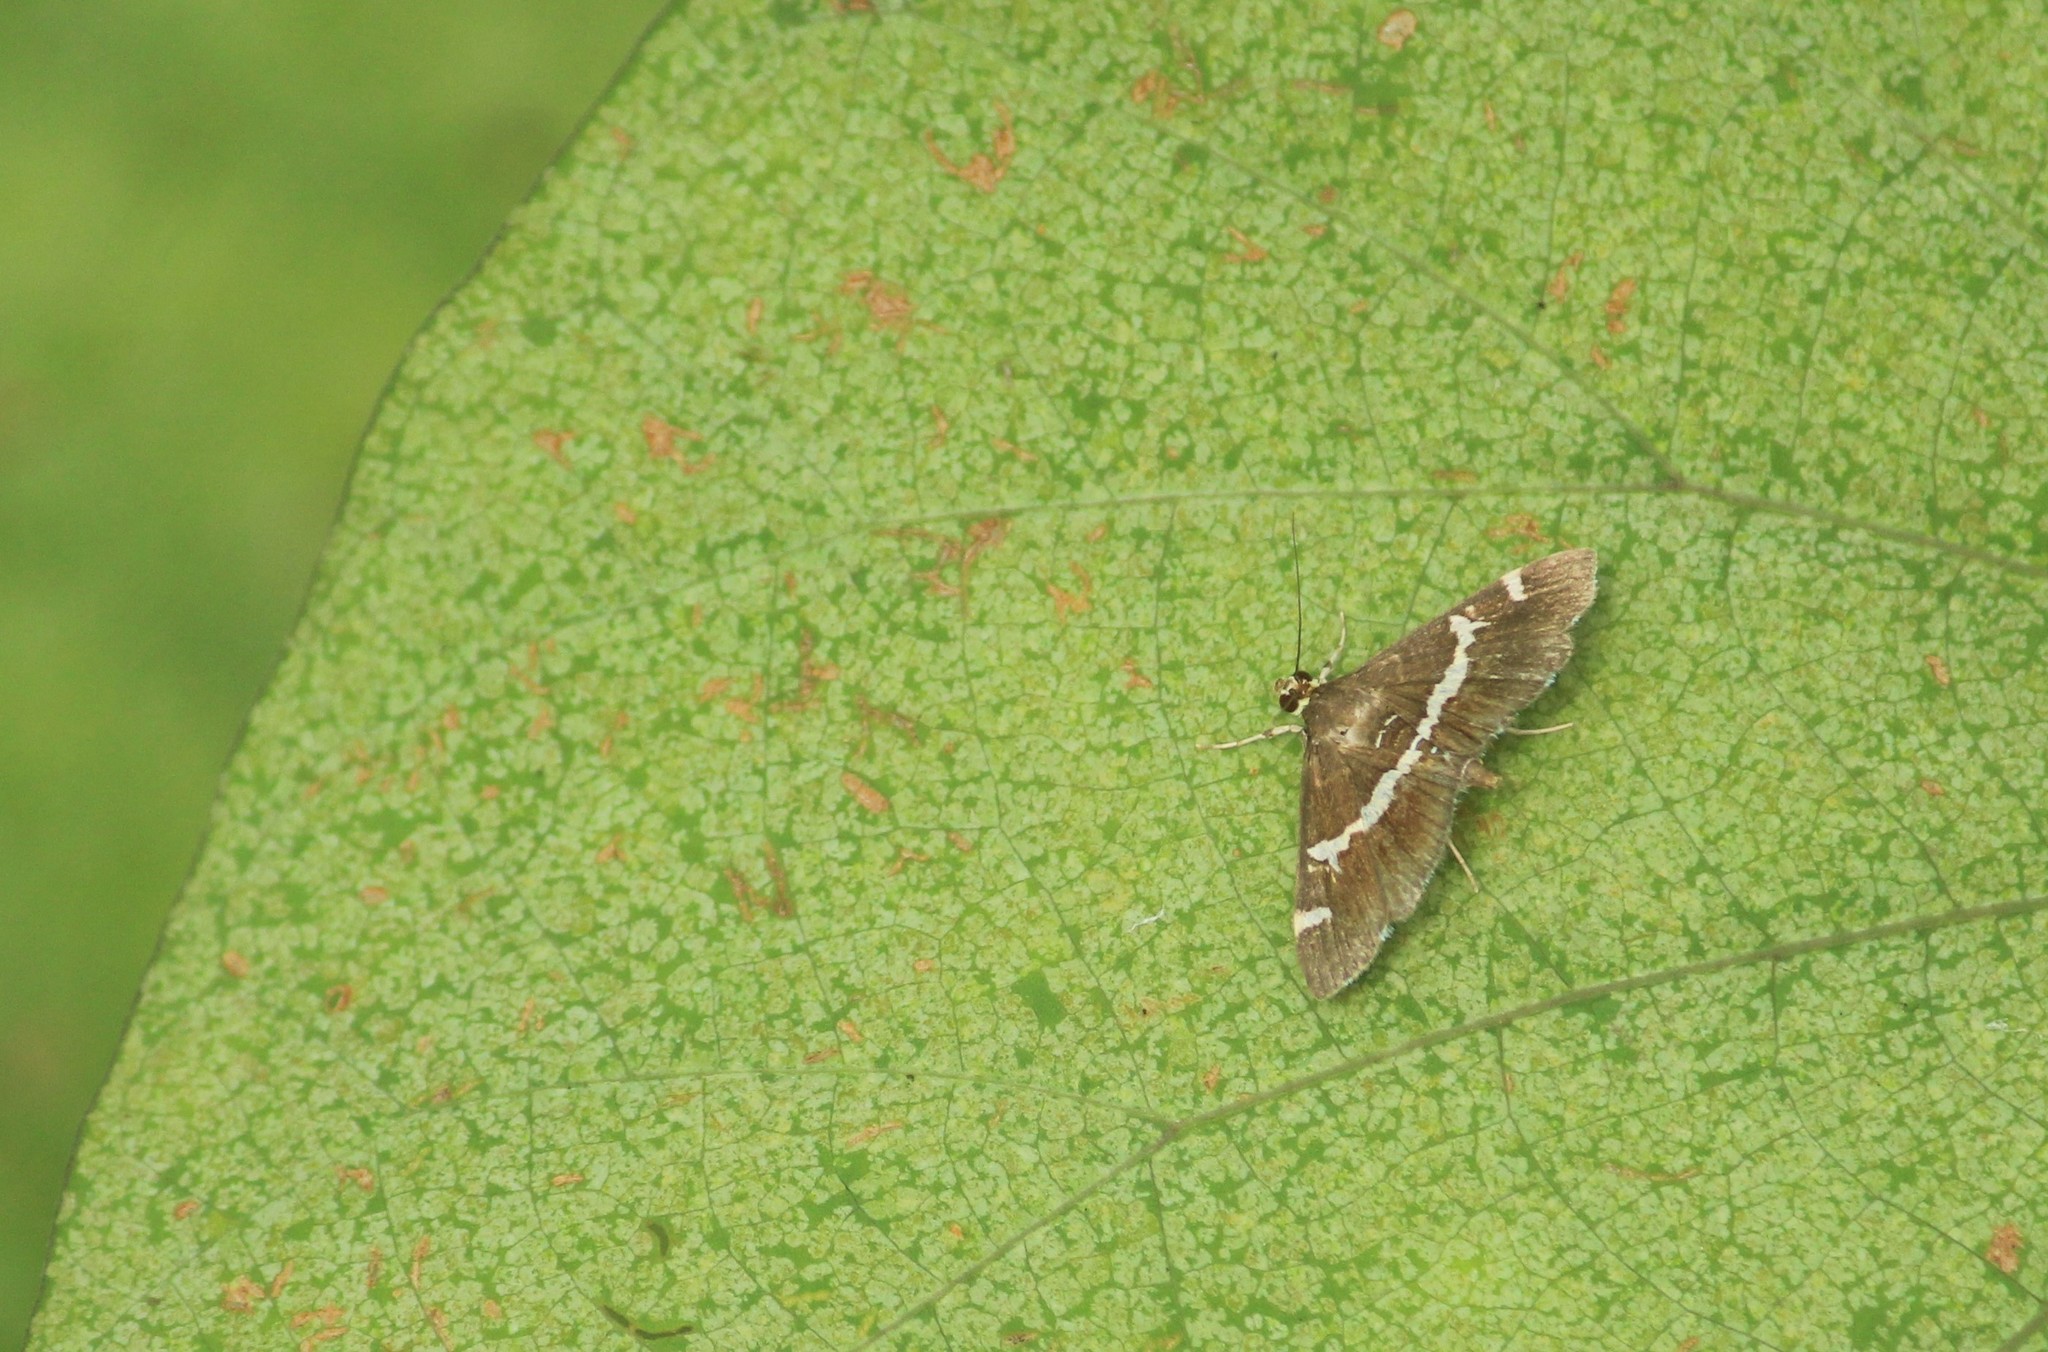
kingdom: Animalia
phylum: Arthropoda
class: Insecta
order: Lepidoptera
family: Crambidae
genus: Spoladea
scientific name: Spoladea recurvalis
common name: Beet webworm moth
